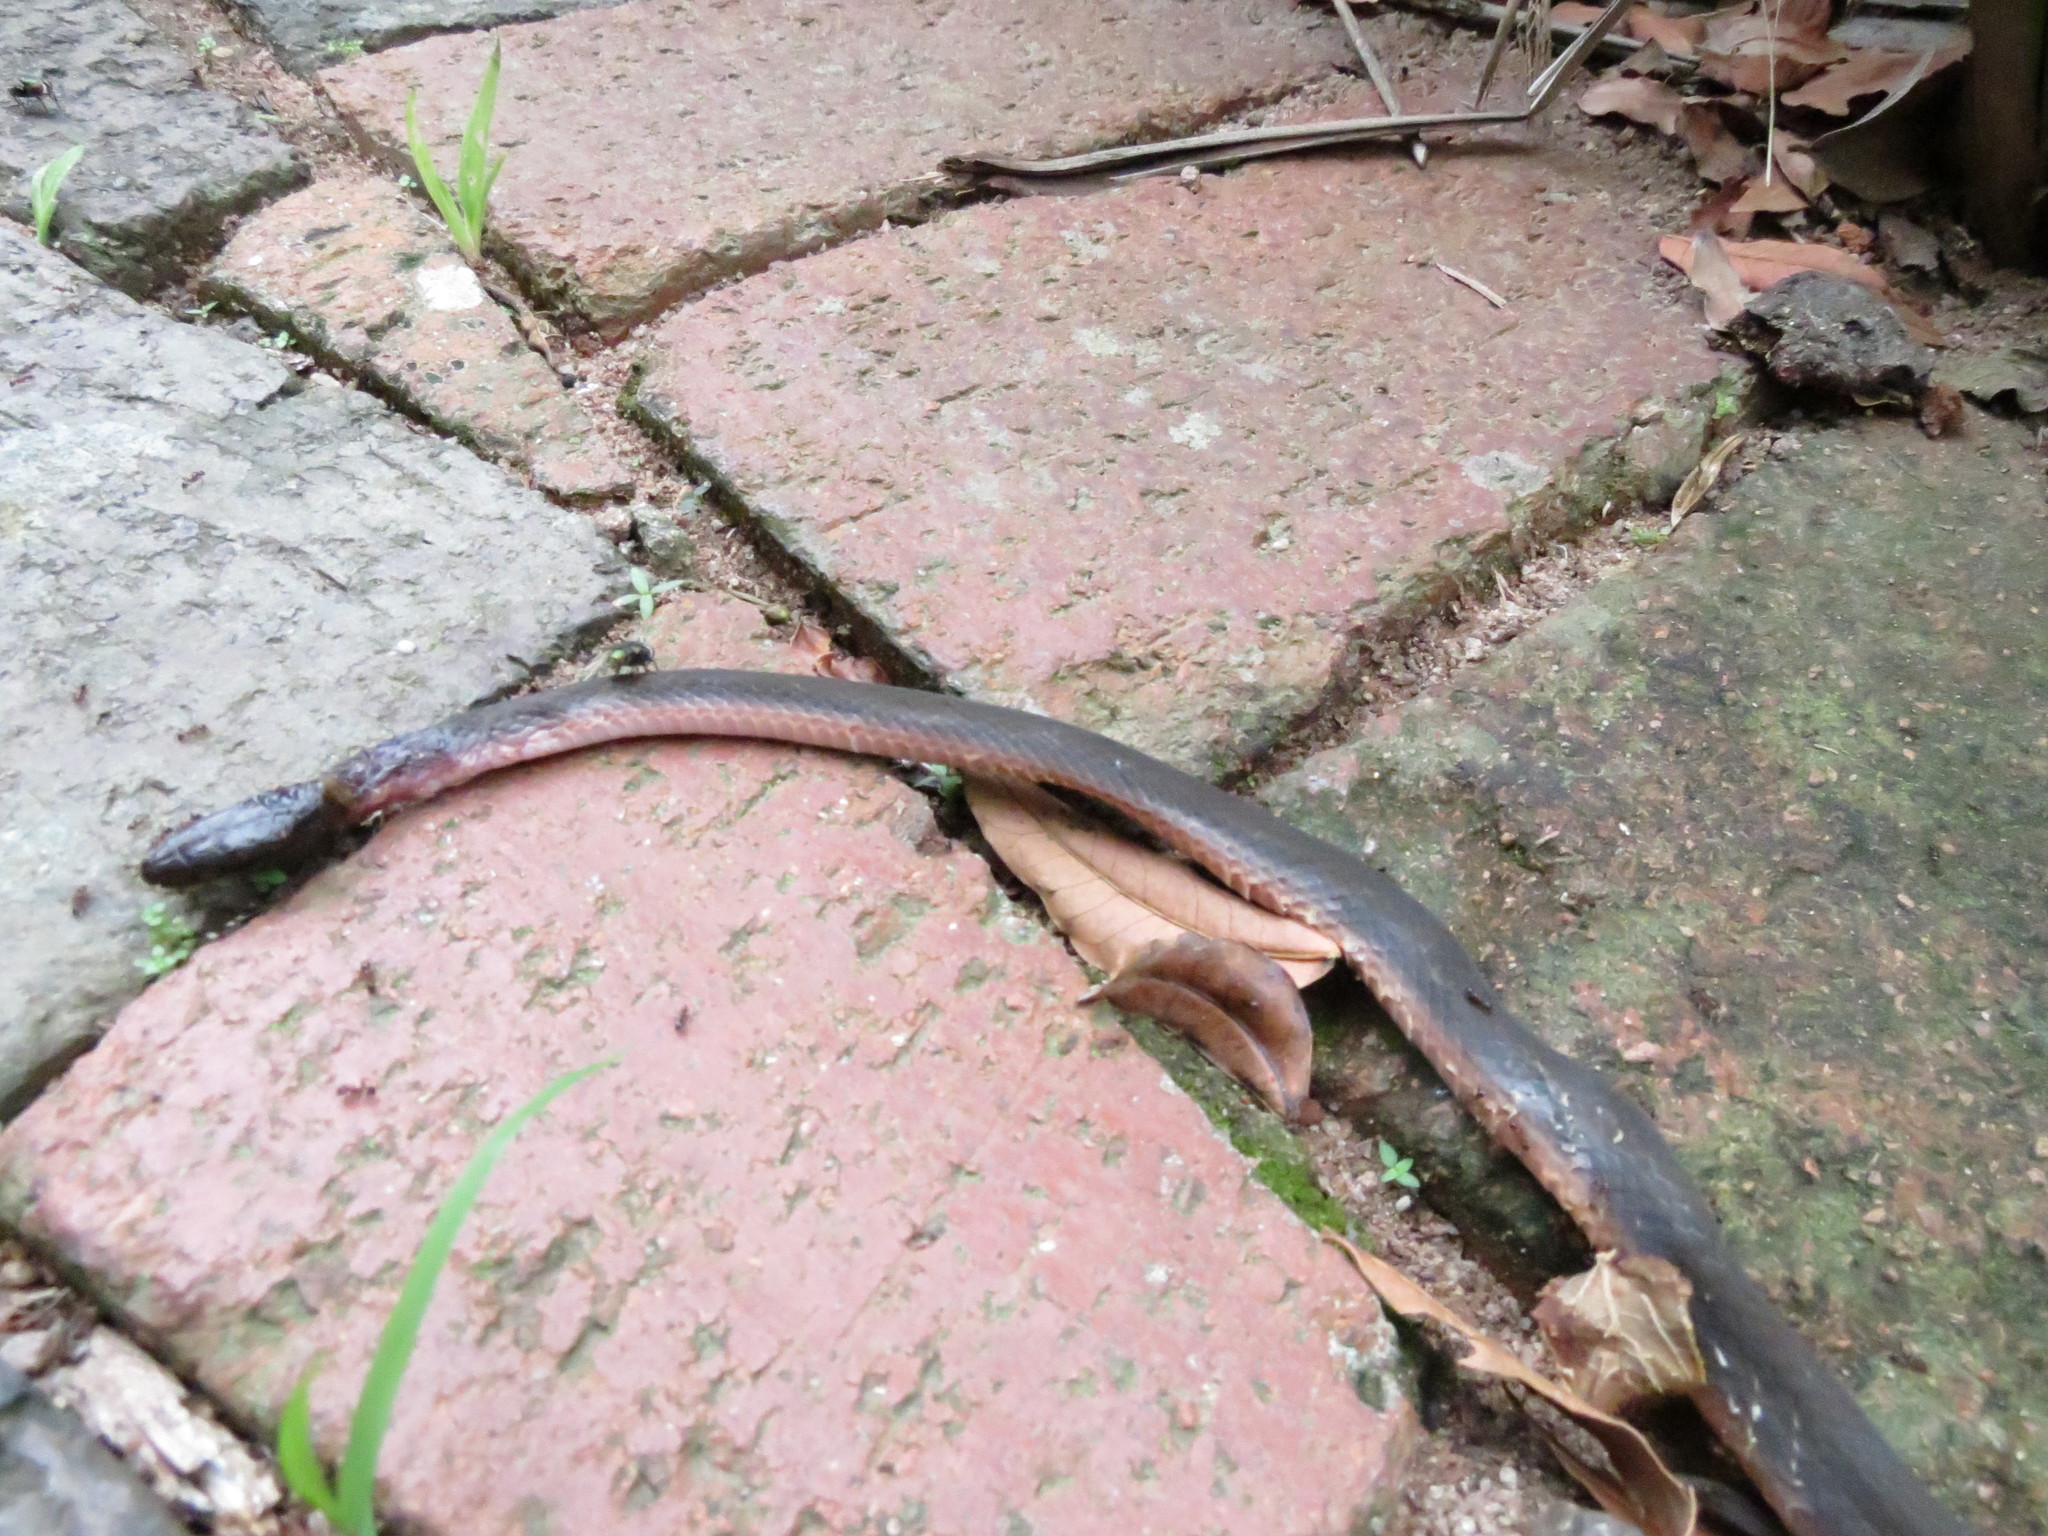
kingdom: Animalia
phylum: Chordata
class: Squamata
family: Lamprophiidae
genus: Lycodonomorphus
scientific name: Lycodonomorphus rufulus
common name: Brown water snake
